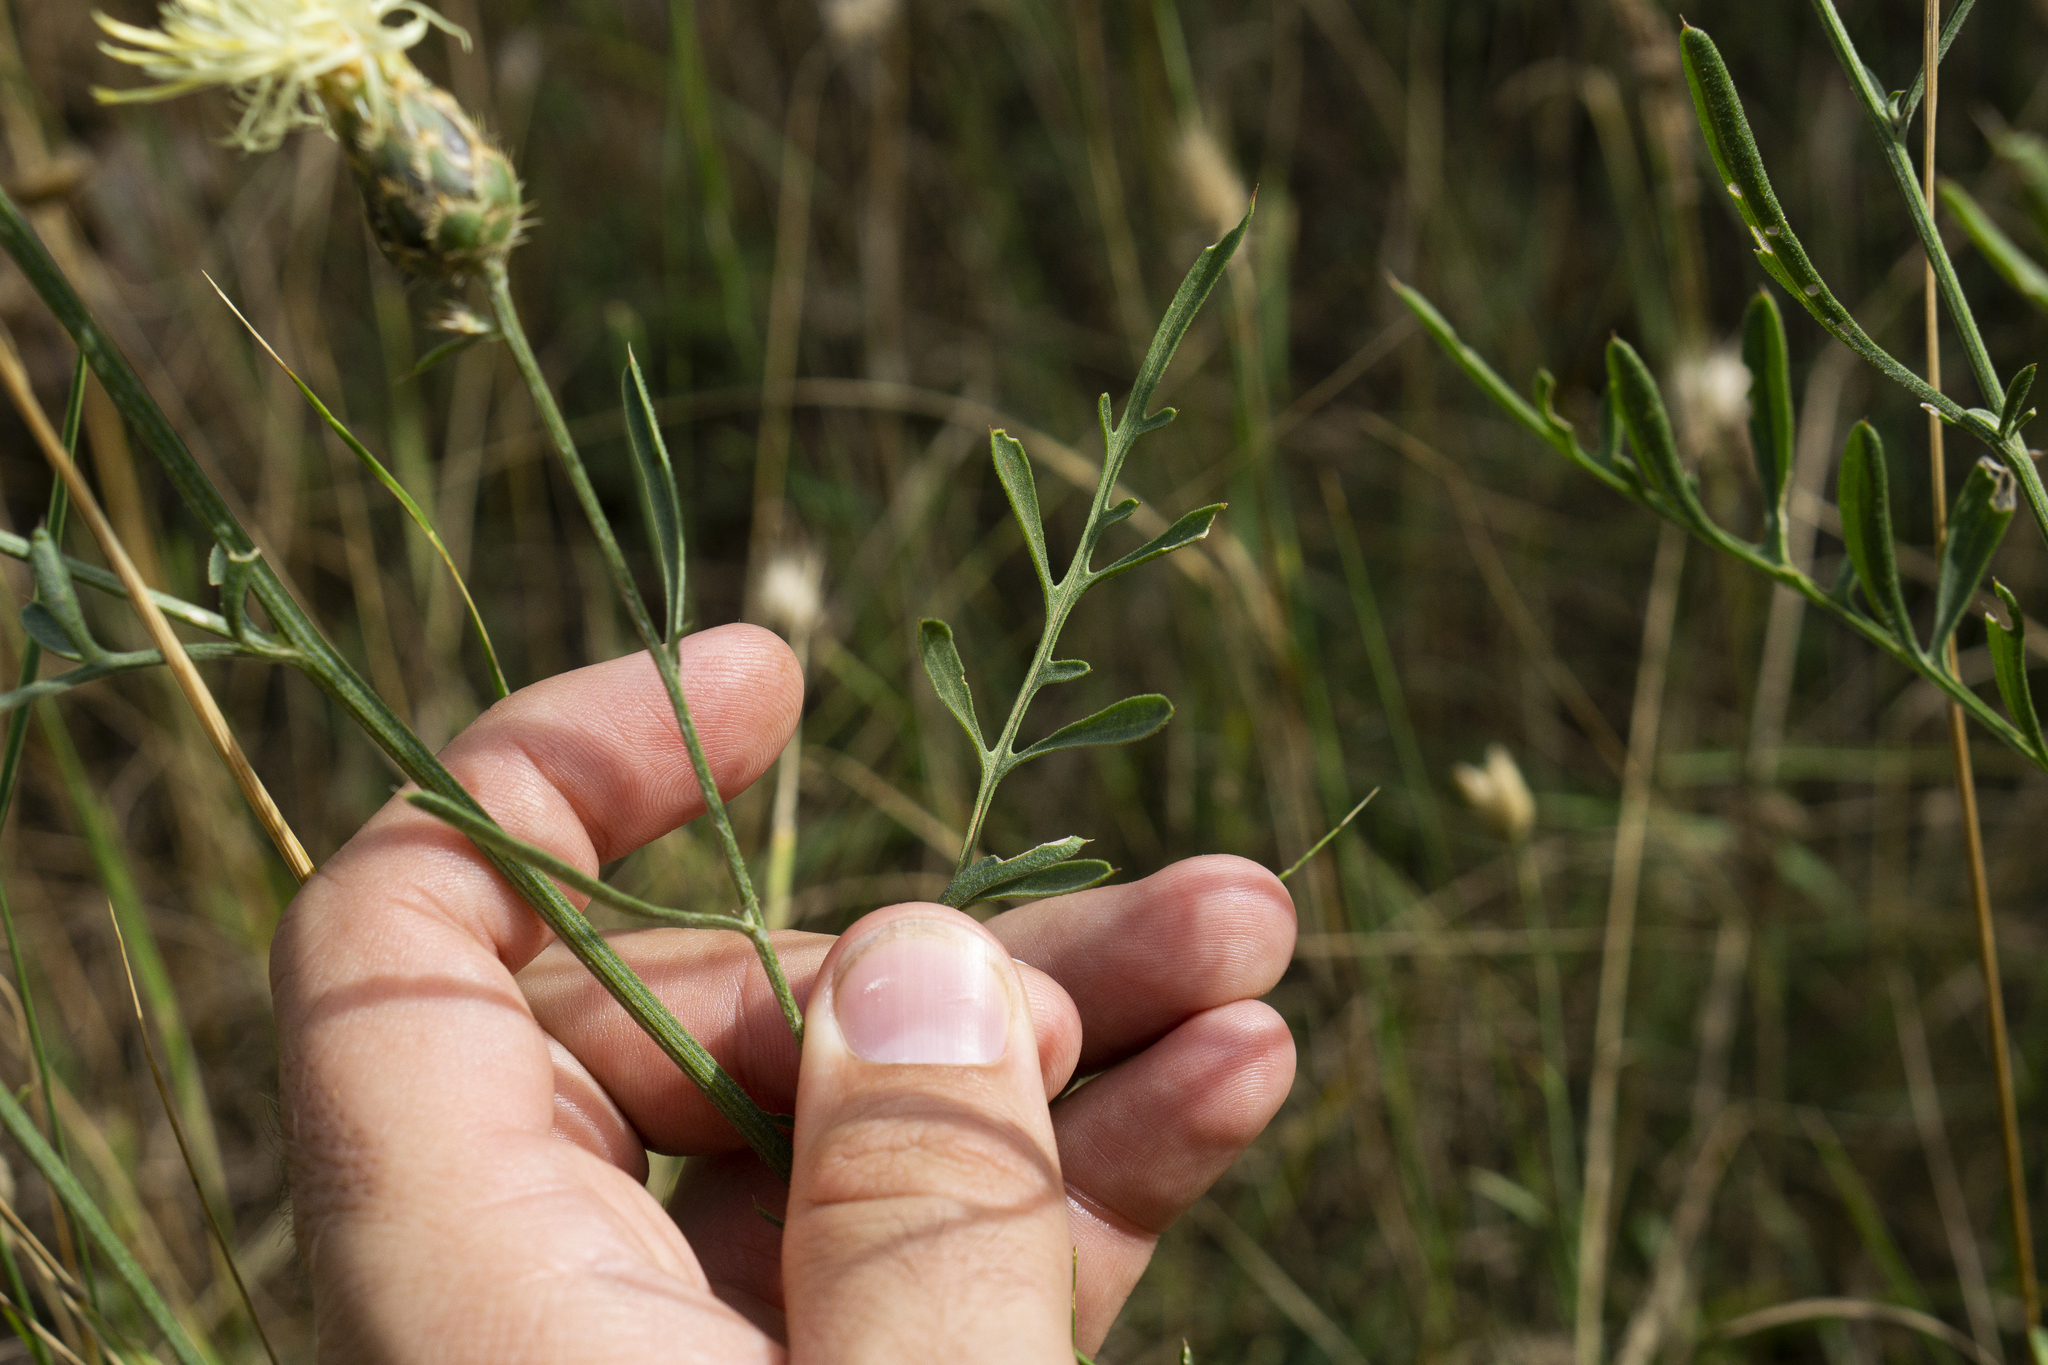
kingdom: Plantae
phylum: Tracheophyta
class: Magnoliopsida
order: Asterales
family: Asteraceae
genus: Centaurea
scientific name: Centaurea salonitana
